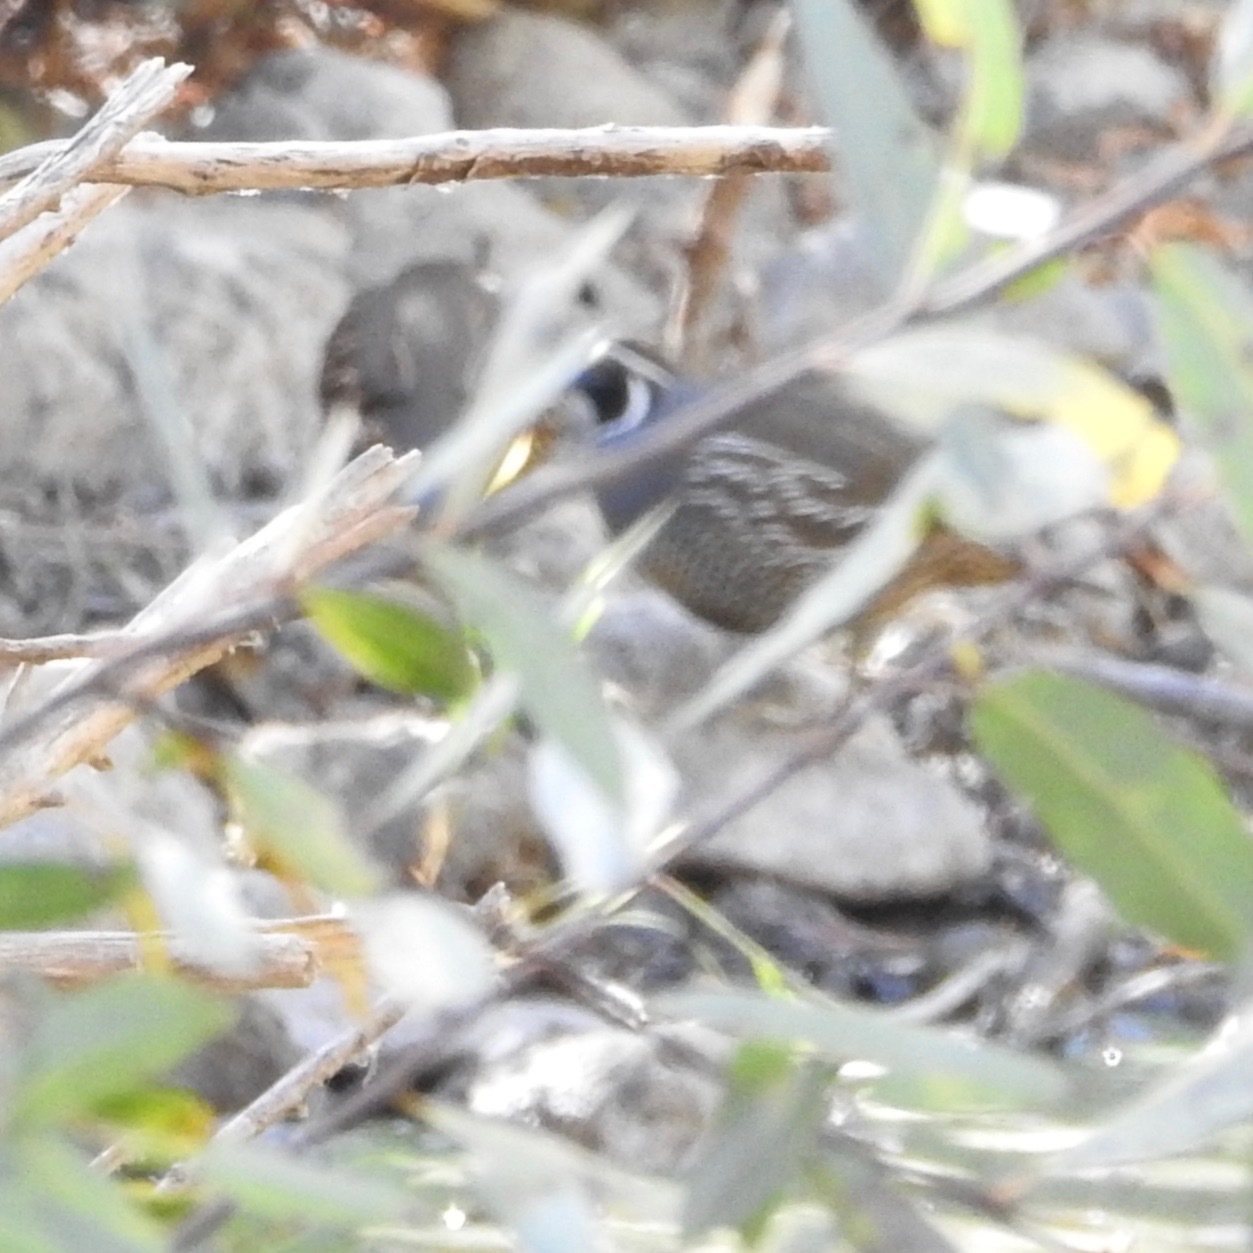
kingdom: Animalia
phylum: Chordata
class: Aves
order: Galliformes
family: Odontophoridae
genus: Callipepla
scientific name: Callipepla californica
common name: California quail
